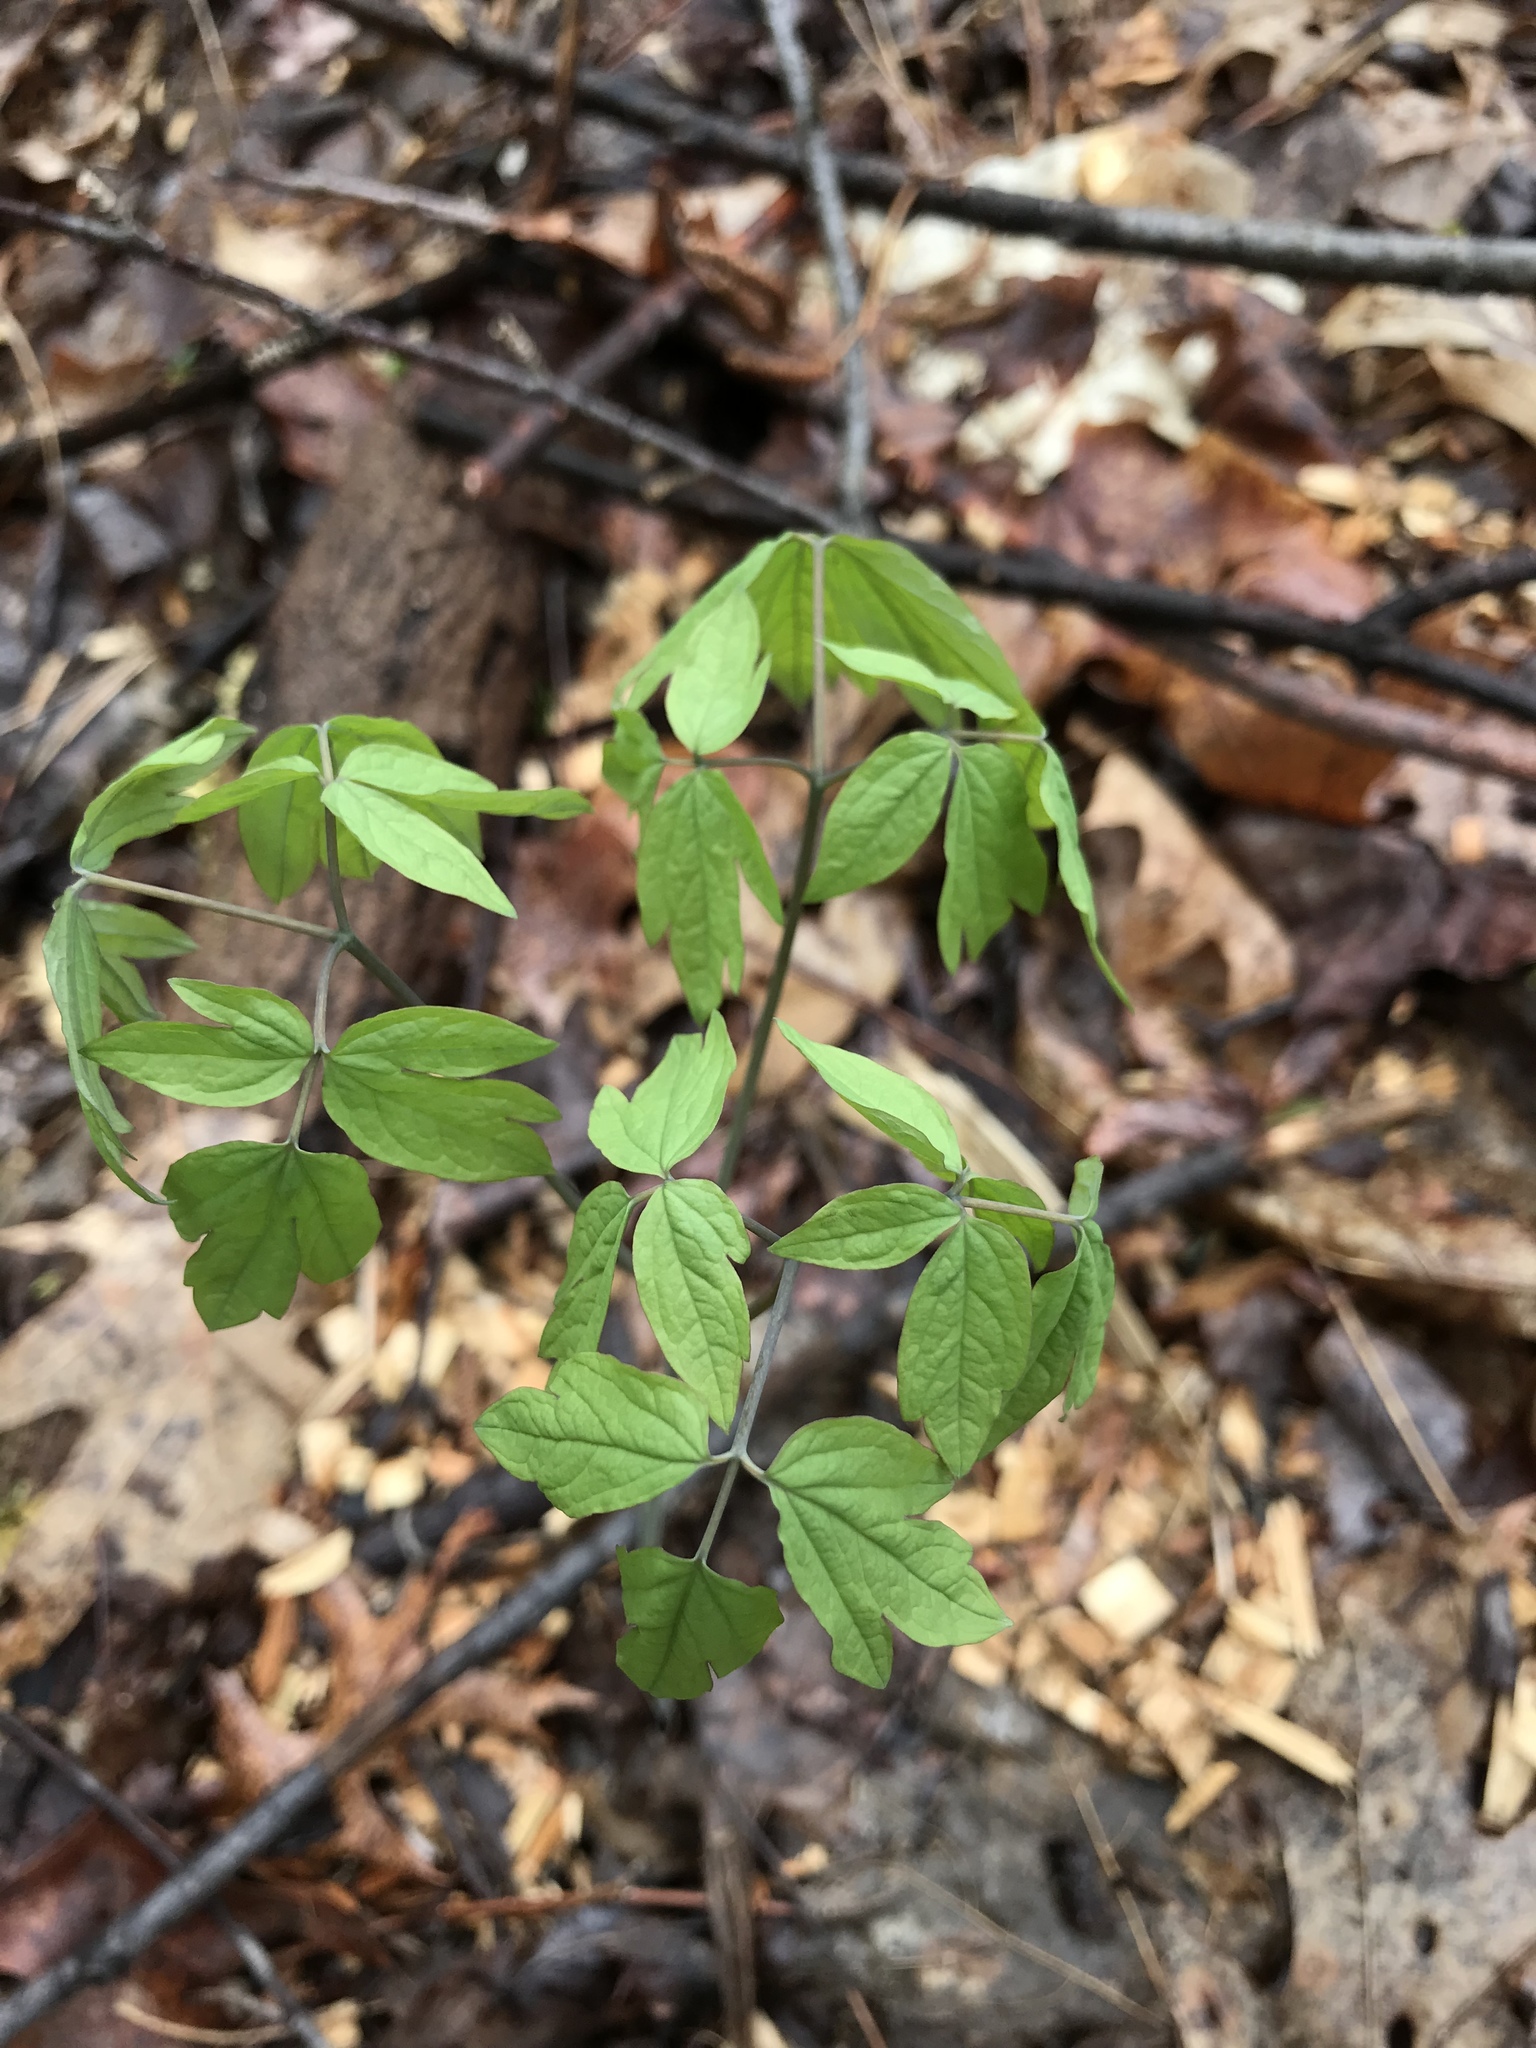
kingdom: Plantae
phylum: Tracheophyta
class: Magnoliopsida
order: Ranunculales
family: Berberidaceae
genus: Caulophyllum
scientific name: Caulophyllum thalictroides
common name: Blue cohosh
